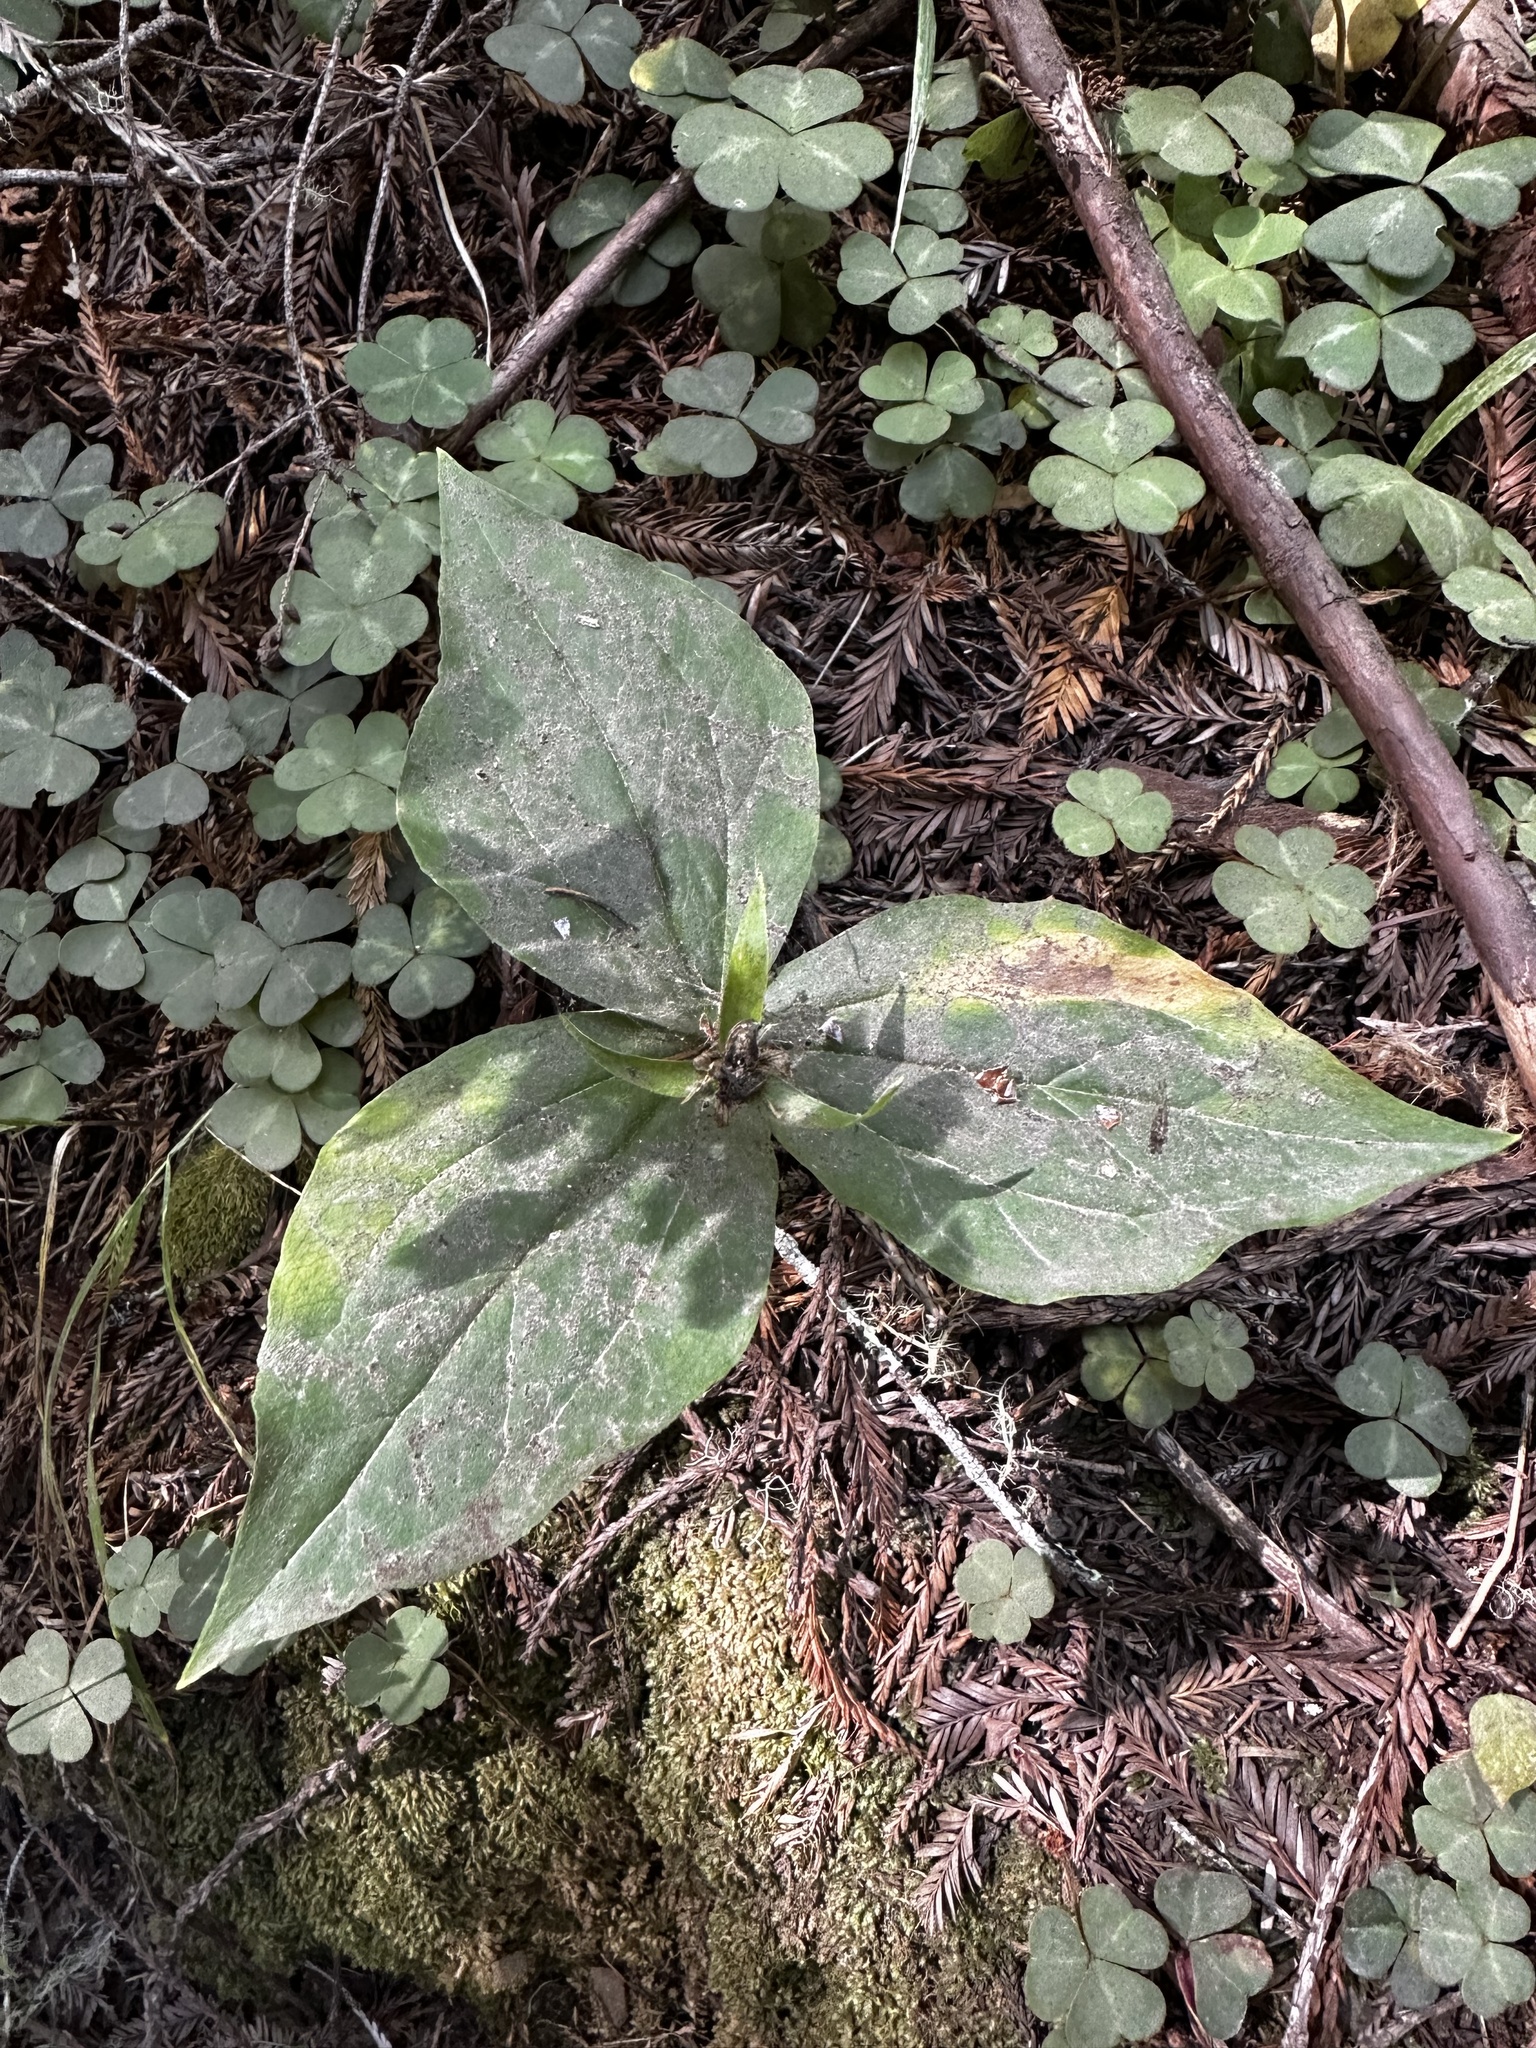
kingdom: Plantae
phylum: Tracheophyta
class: Liliopsida
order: Liliales
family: Melanthiaceae
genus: Trillium
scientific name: Trillium ovatum
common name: Pacific trillium
